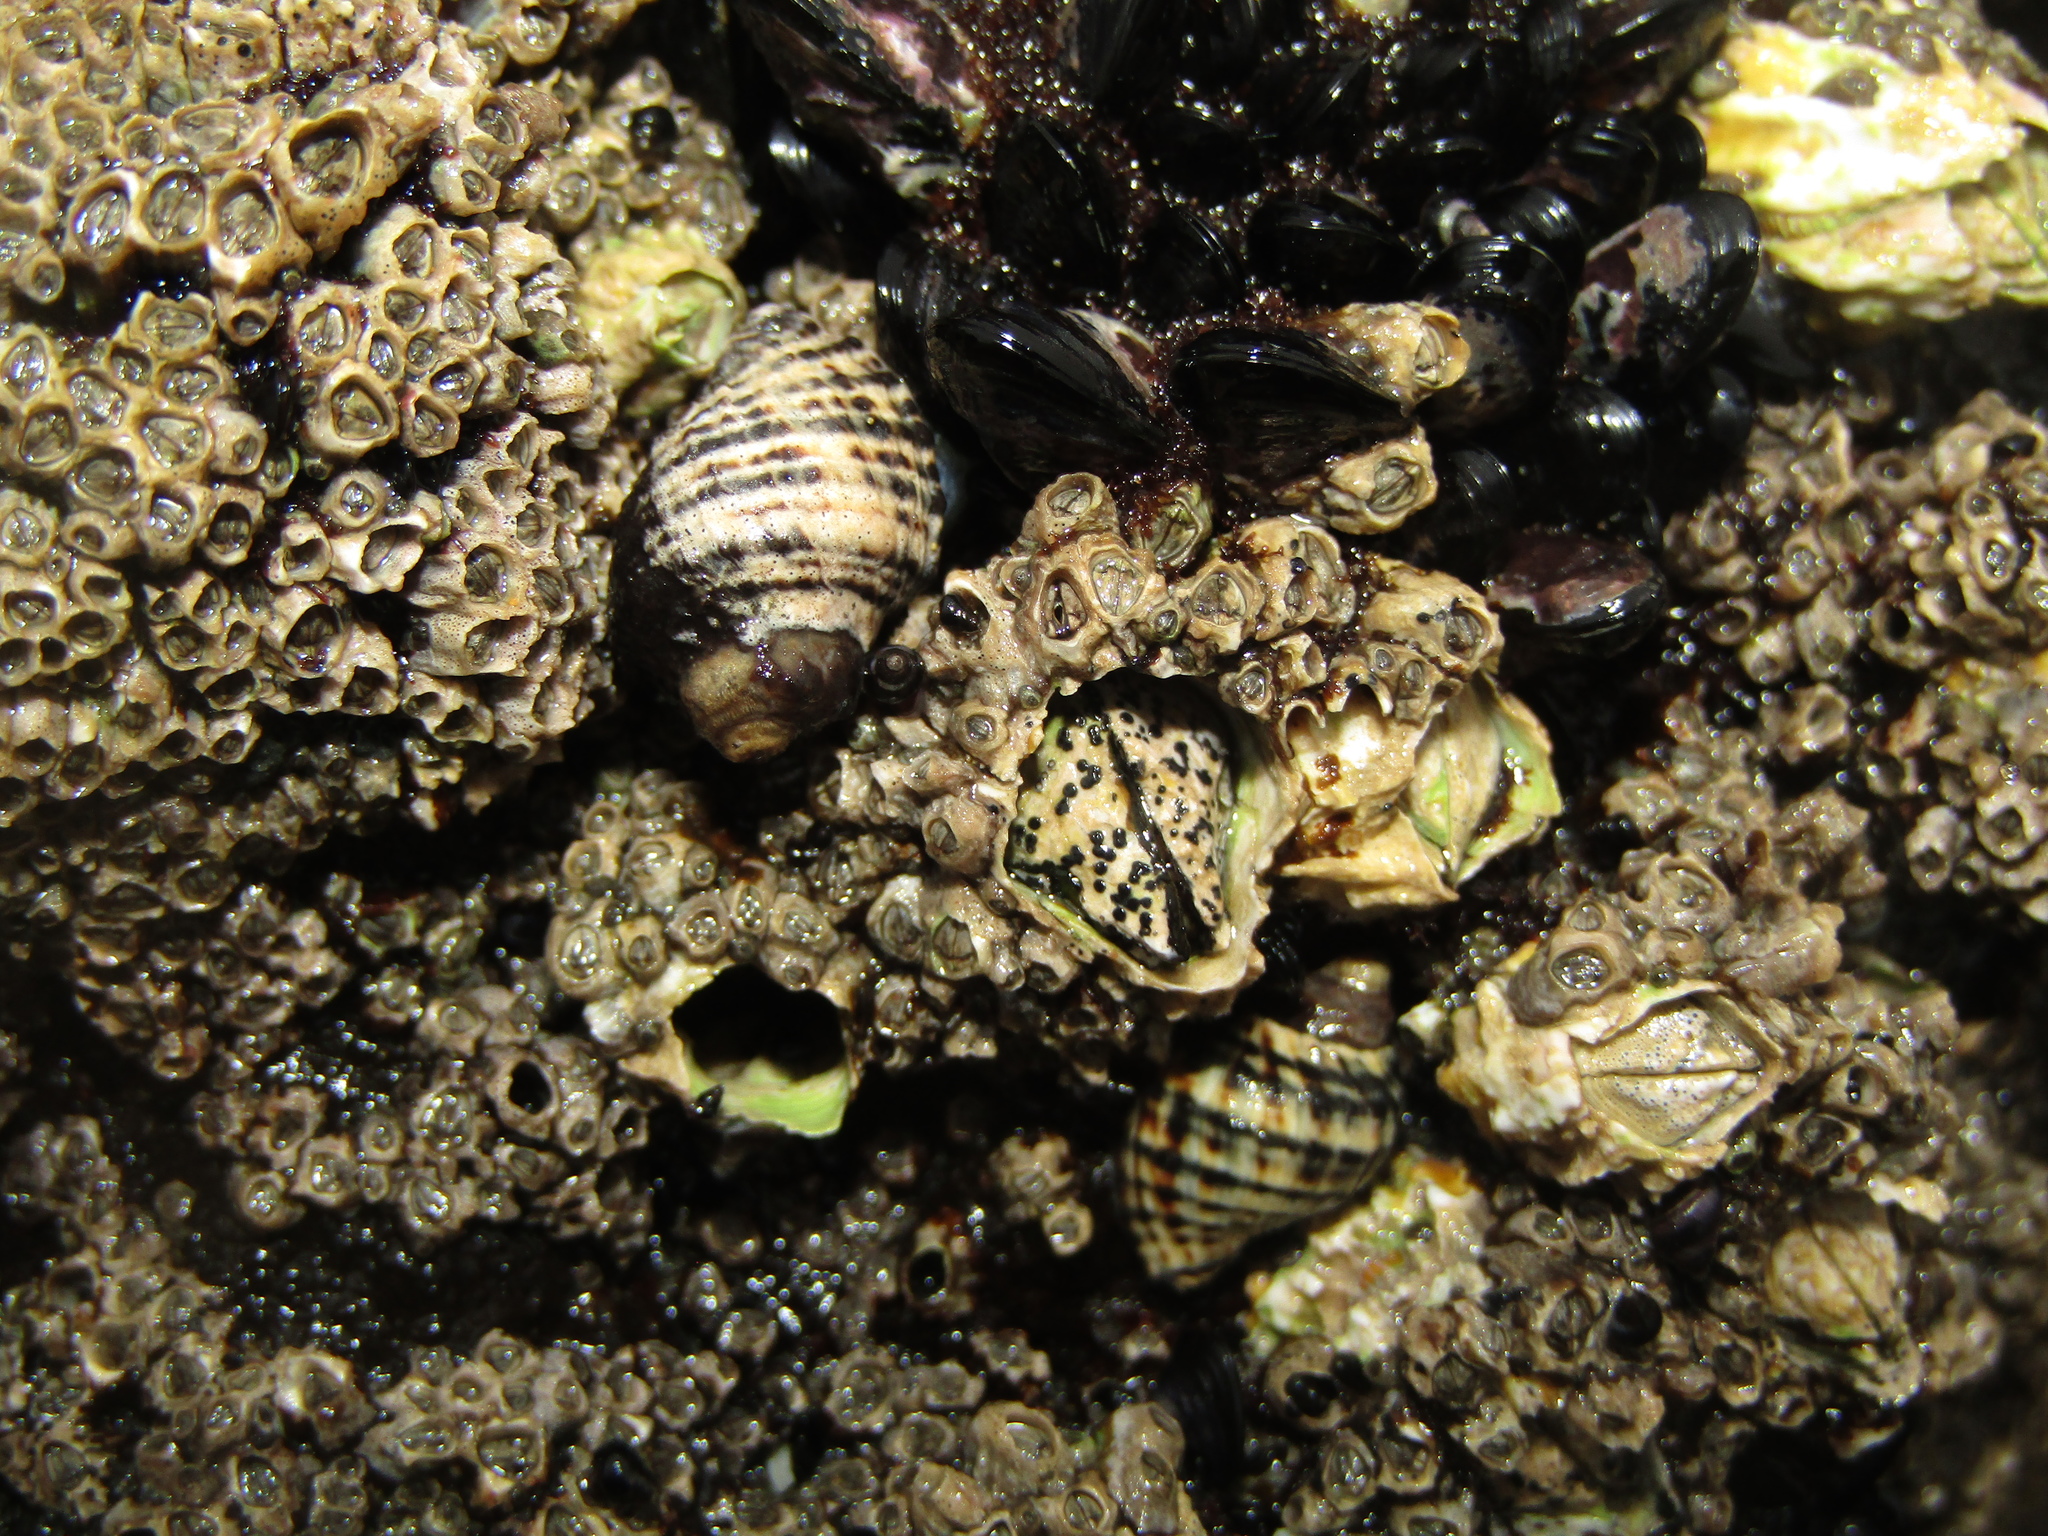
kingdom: Animalia
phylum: Mollusca
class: Gastropoda
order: Neogastropoda
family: Muricidae
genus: Haustrum
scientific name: Haustrum albomarginatum
